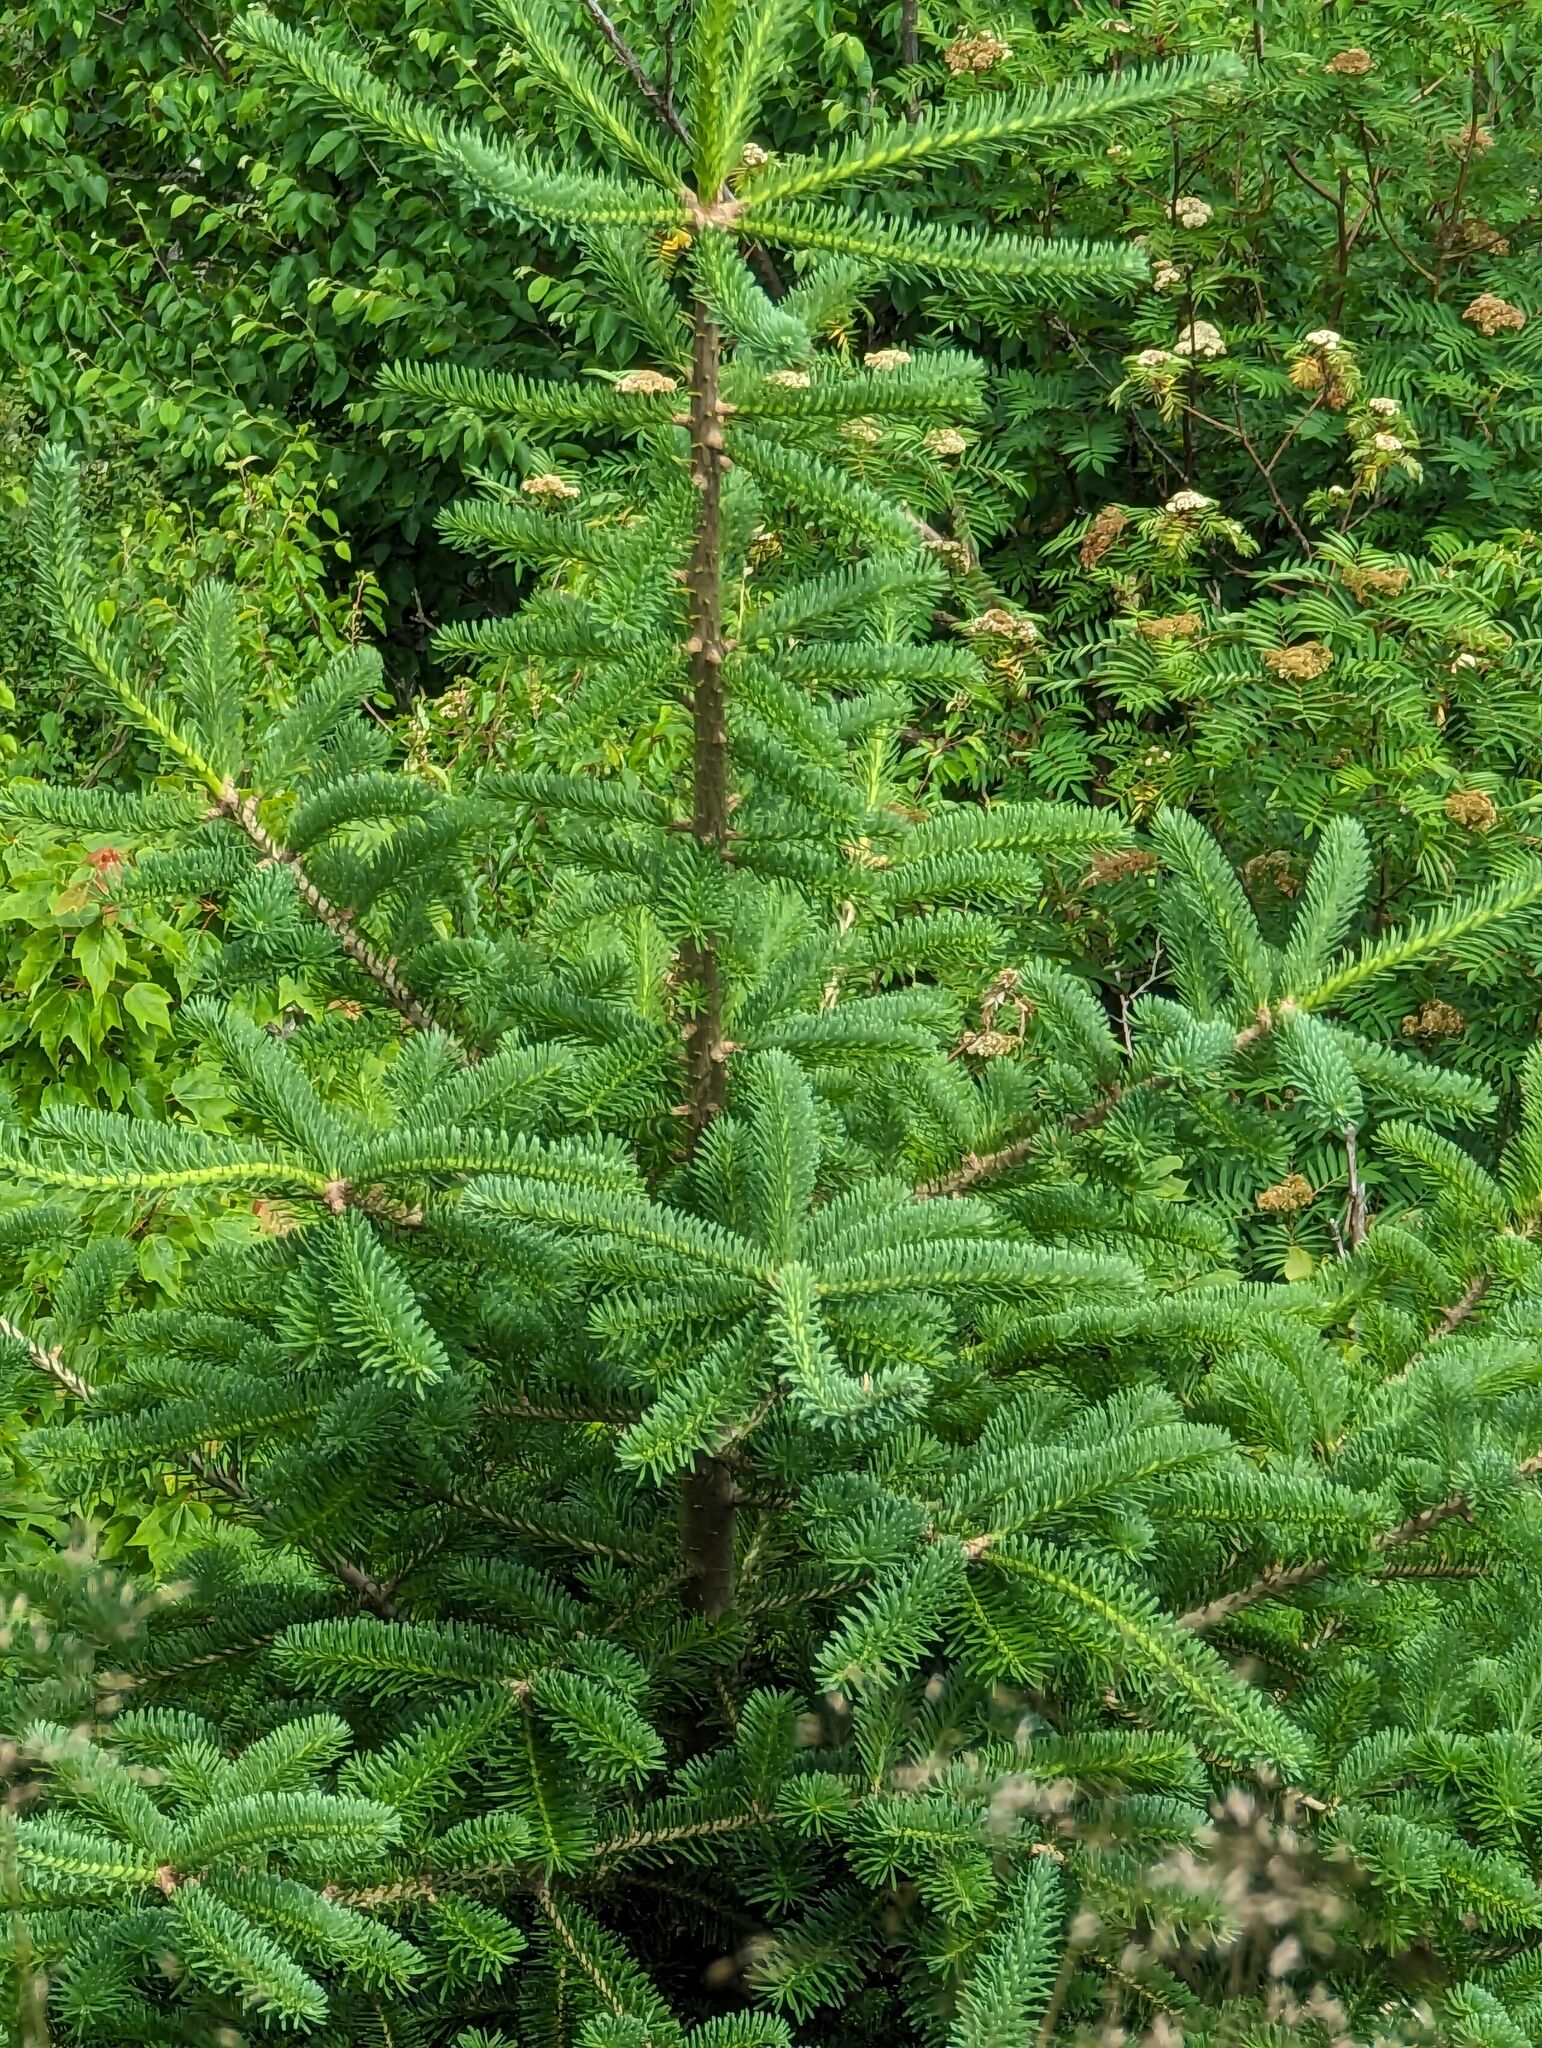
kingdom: Plantae
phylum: Tracheophyta
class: Pinopsida
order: Pinales
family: Pinaceae
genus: Abies
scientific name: Abies balsamea
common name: Balsam fir
